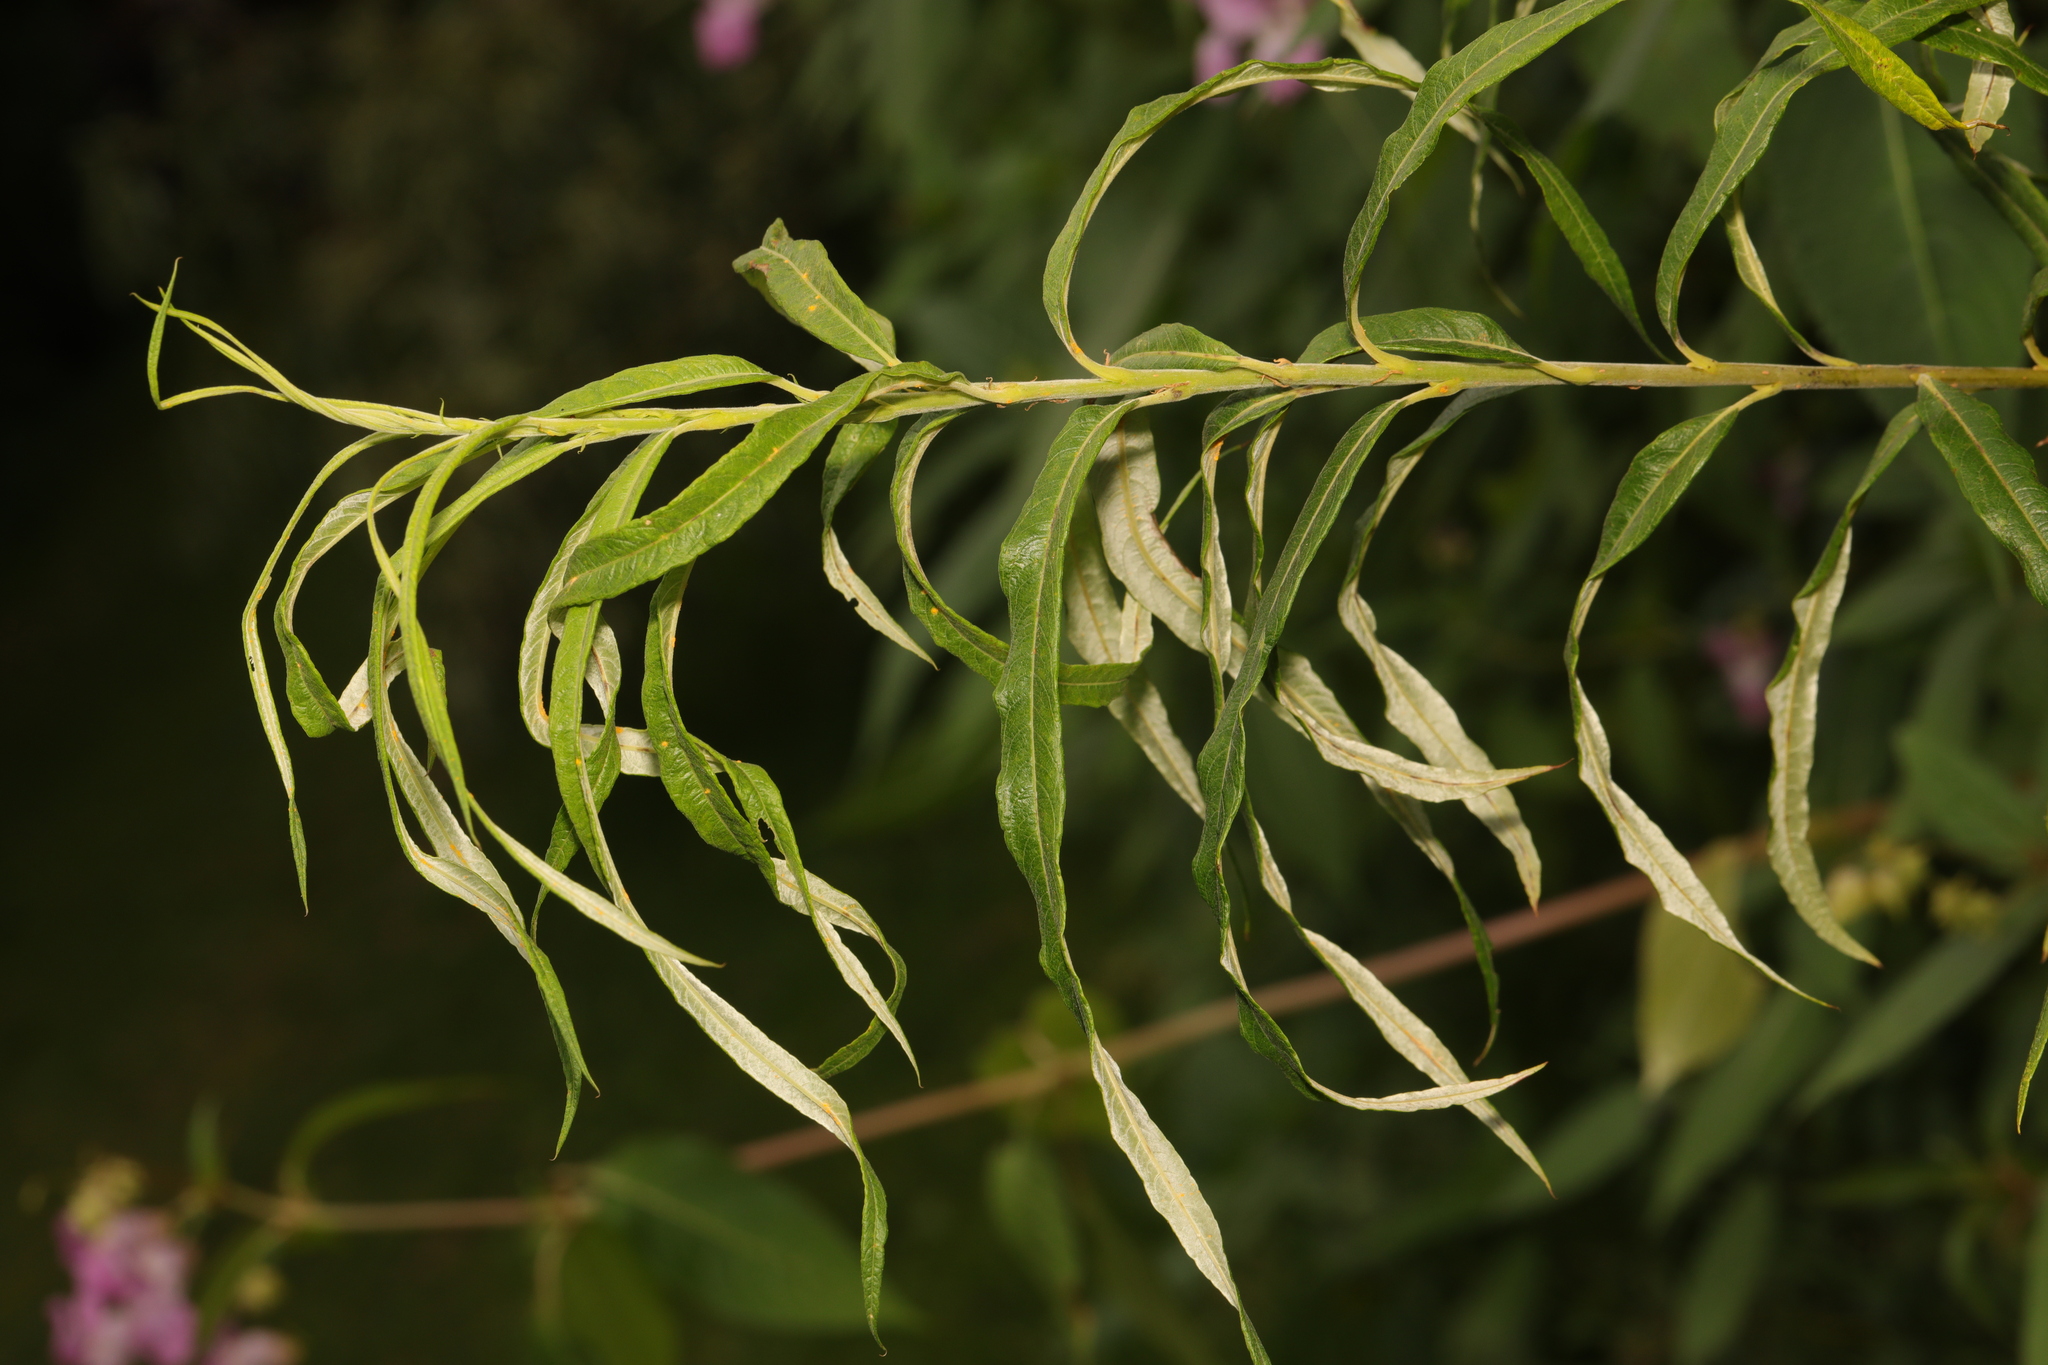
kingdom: Plantae
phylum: Tracheophyta
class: Magnoliopsida
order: Malpighiales
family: Salicaceae
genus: Salix
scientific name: Salix viminalis
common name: Osier
